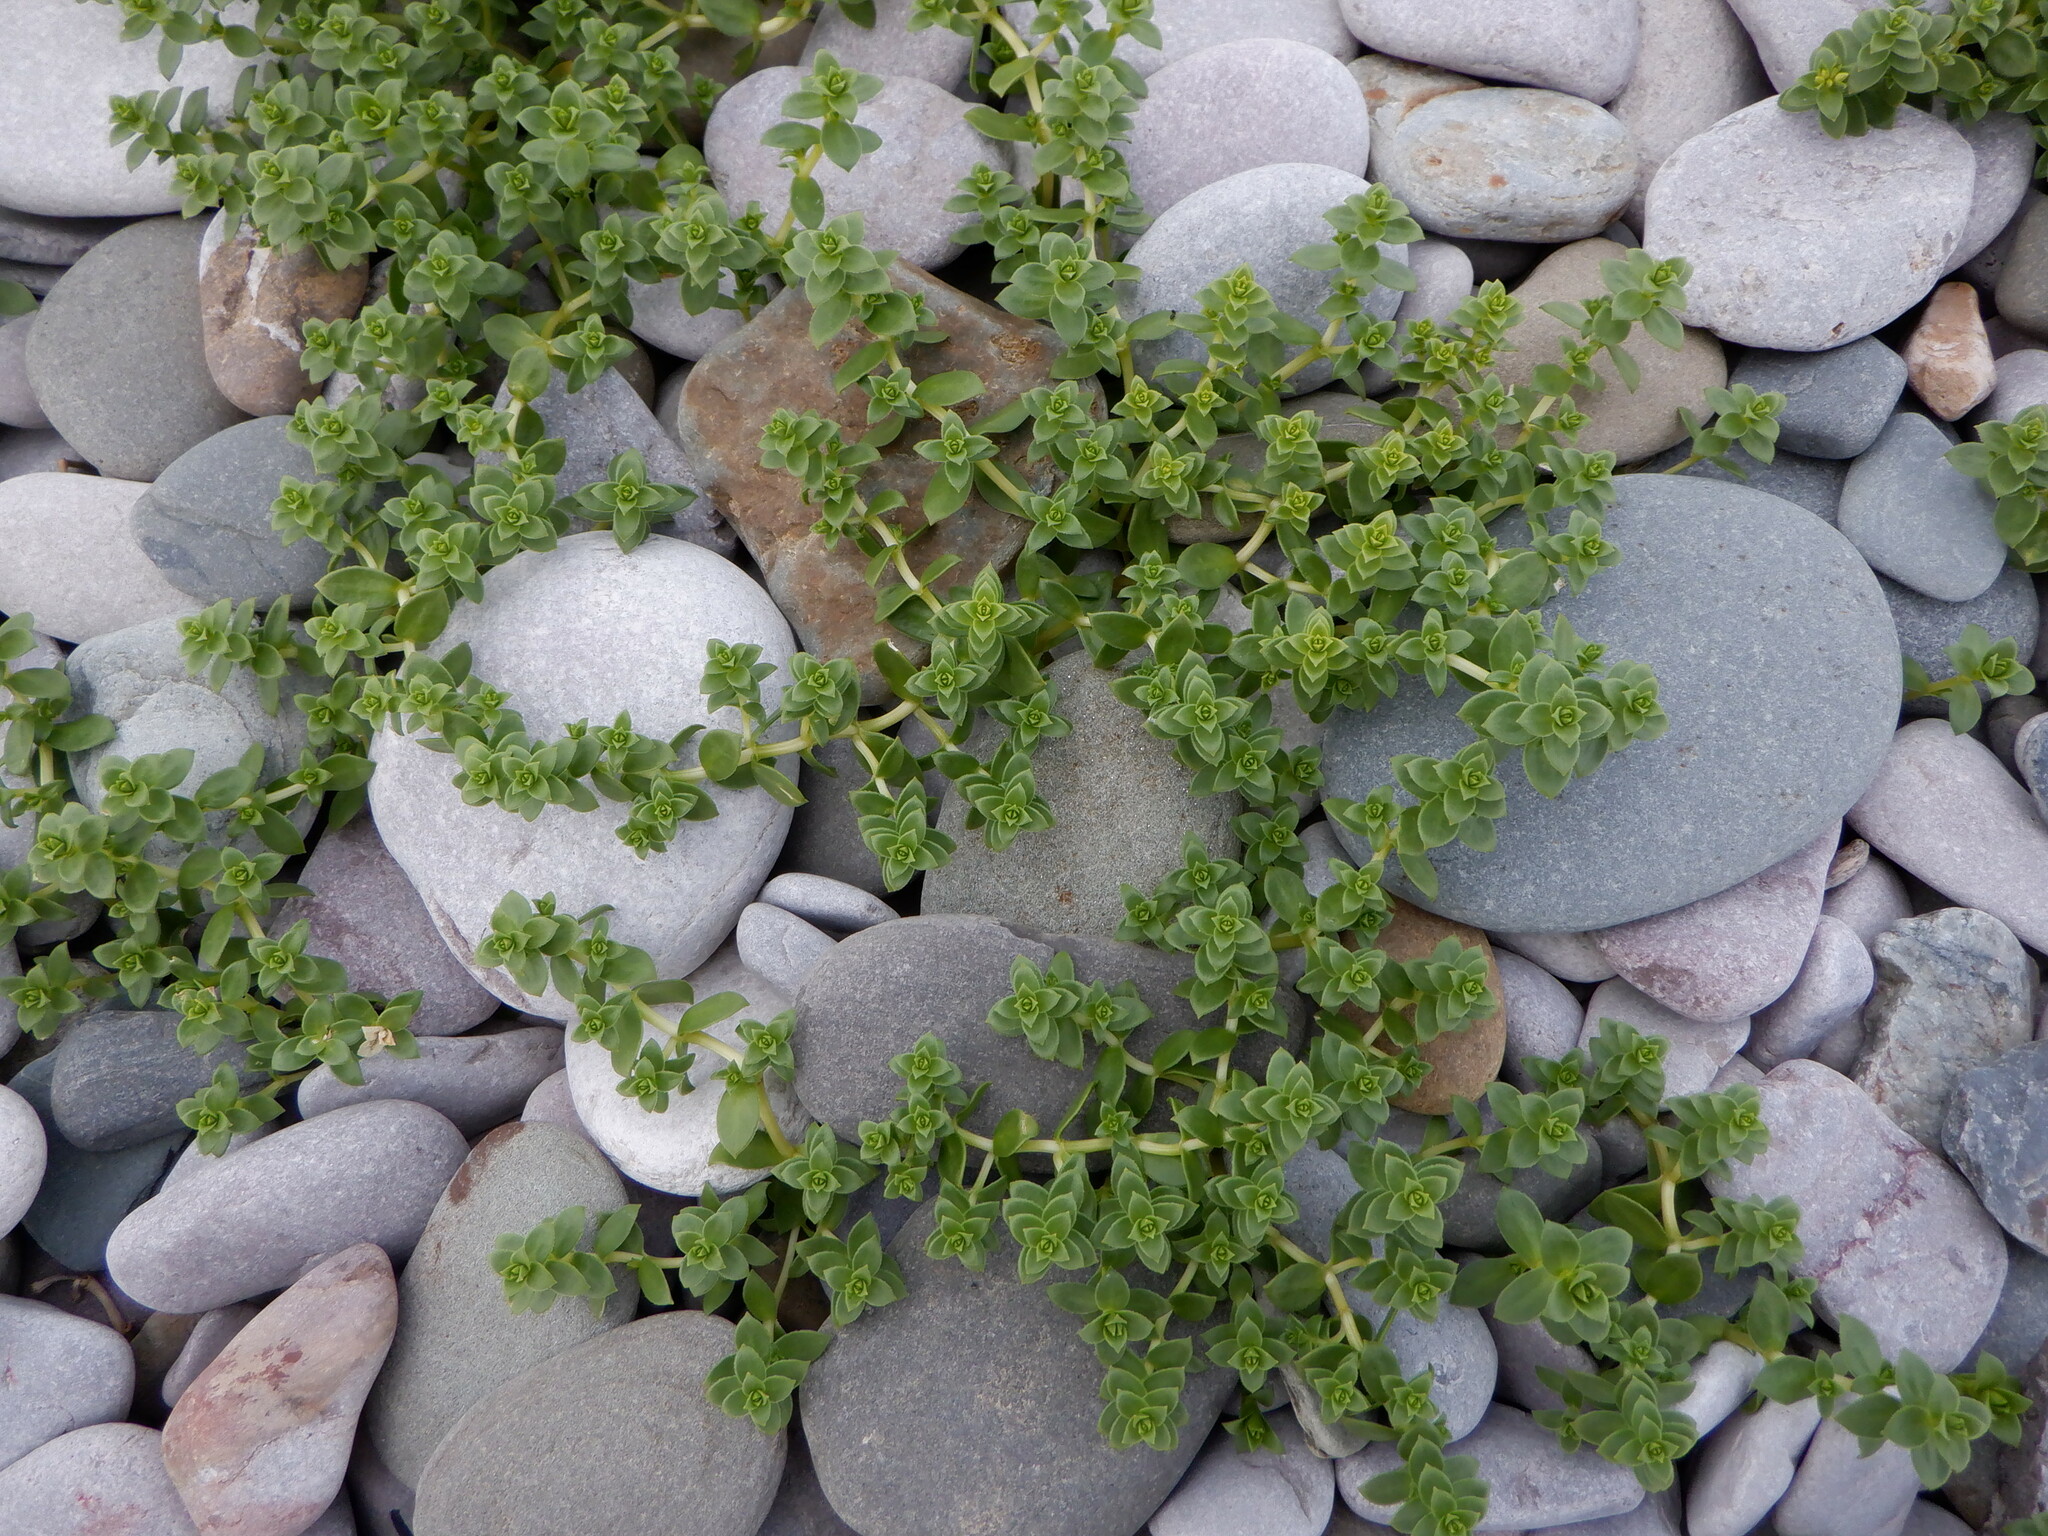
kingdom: Plantae
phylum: Tracheophyta
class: Magnoliopsida
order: Caryophyllales
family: Caryophyllaceae
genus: Honckenya
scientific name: Honckenya peploides
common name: Sea sandwort
